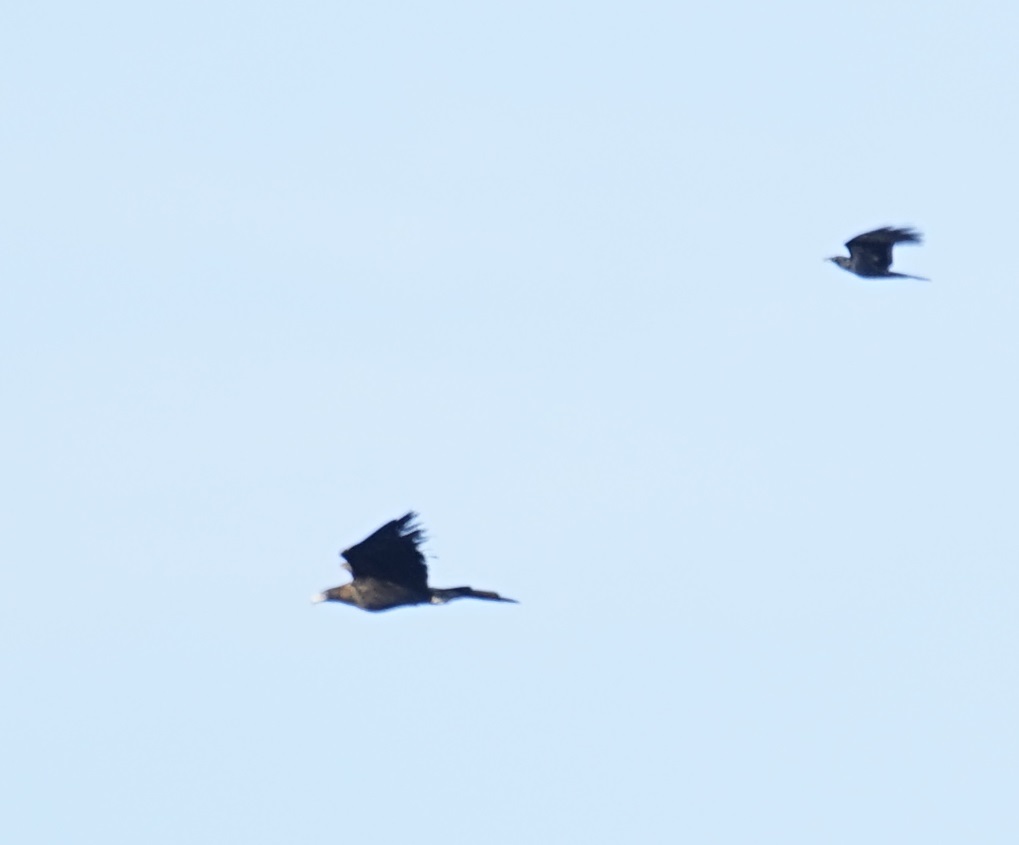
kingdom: Animalia
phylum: Chordata
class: Aves
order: Accipitriformes
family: Accipitridae
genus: Aquila
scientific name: Aquila audax
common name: Wedge-tailed eagle
